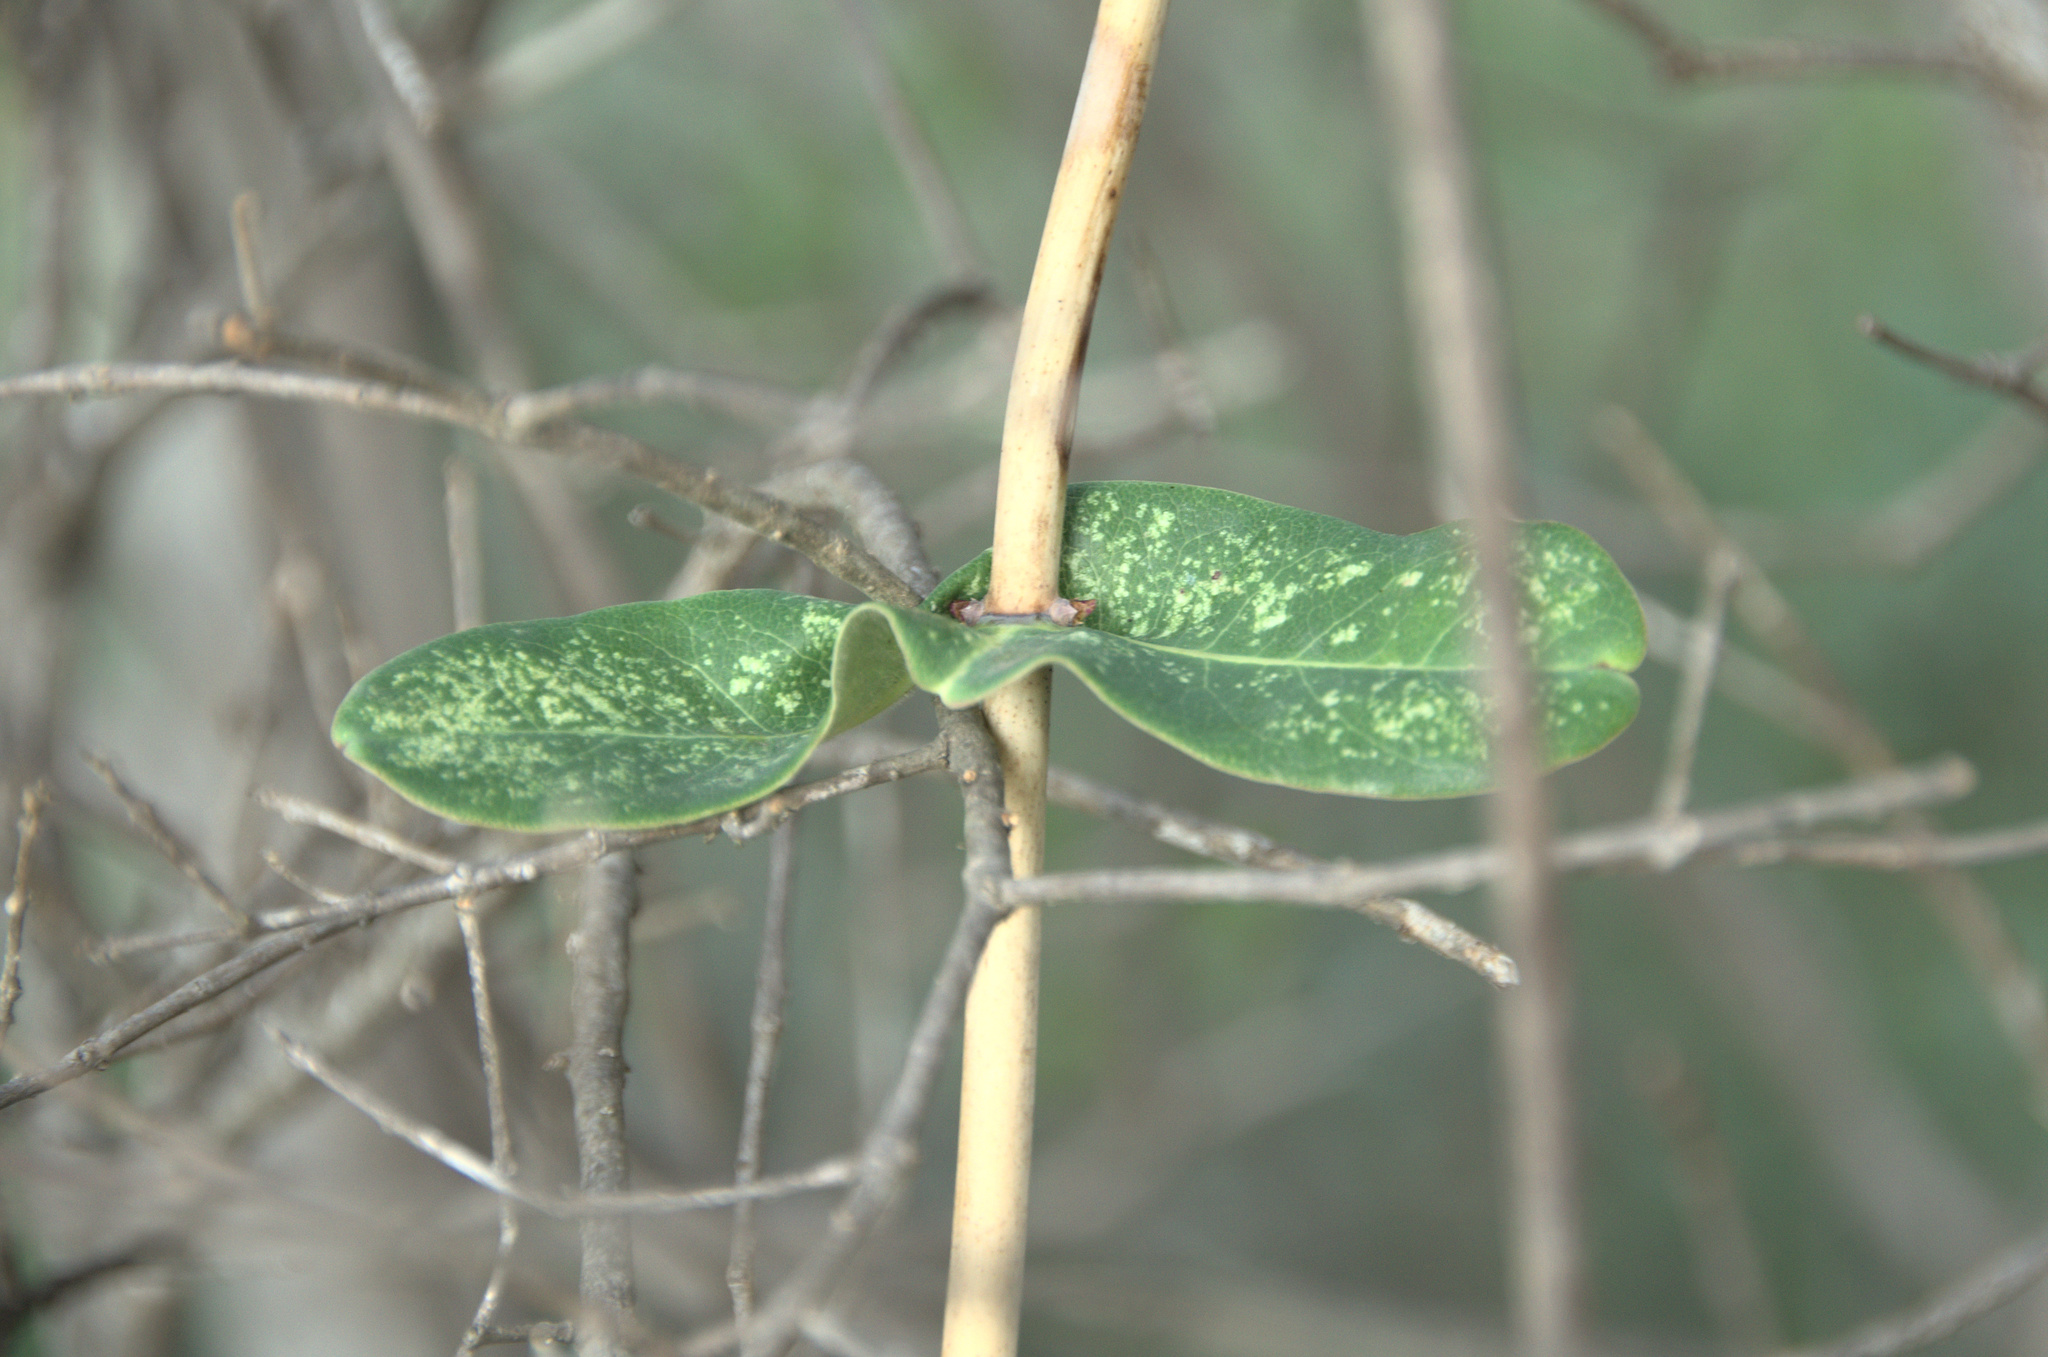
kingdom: Plantae
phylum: Tracheophyta
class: Magnoliopsida
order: Dipsacales
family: Caprifoliaceae
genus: Lonicera
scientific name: Lonicera implexa
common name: Minorca honeysuckle
